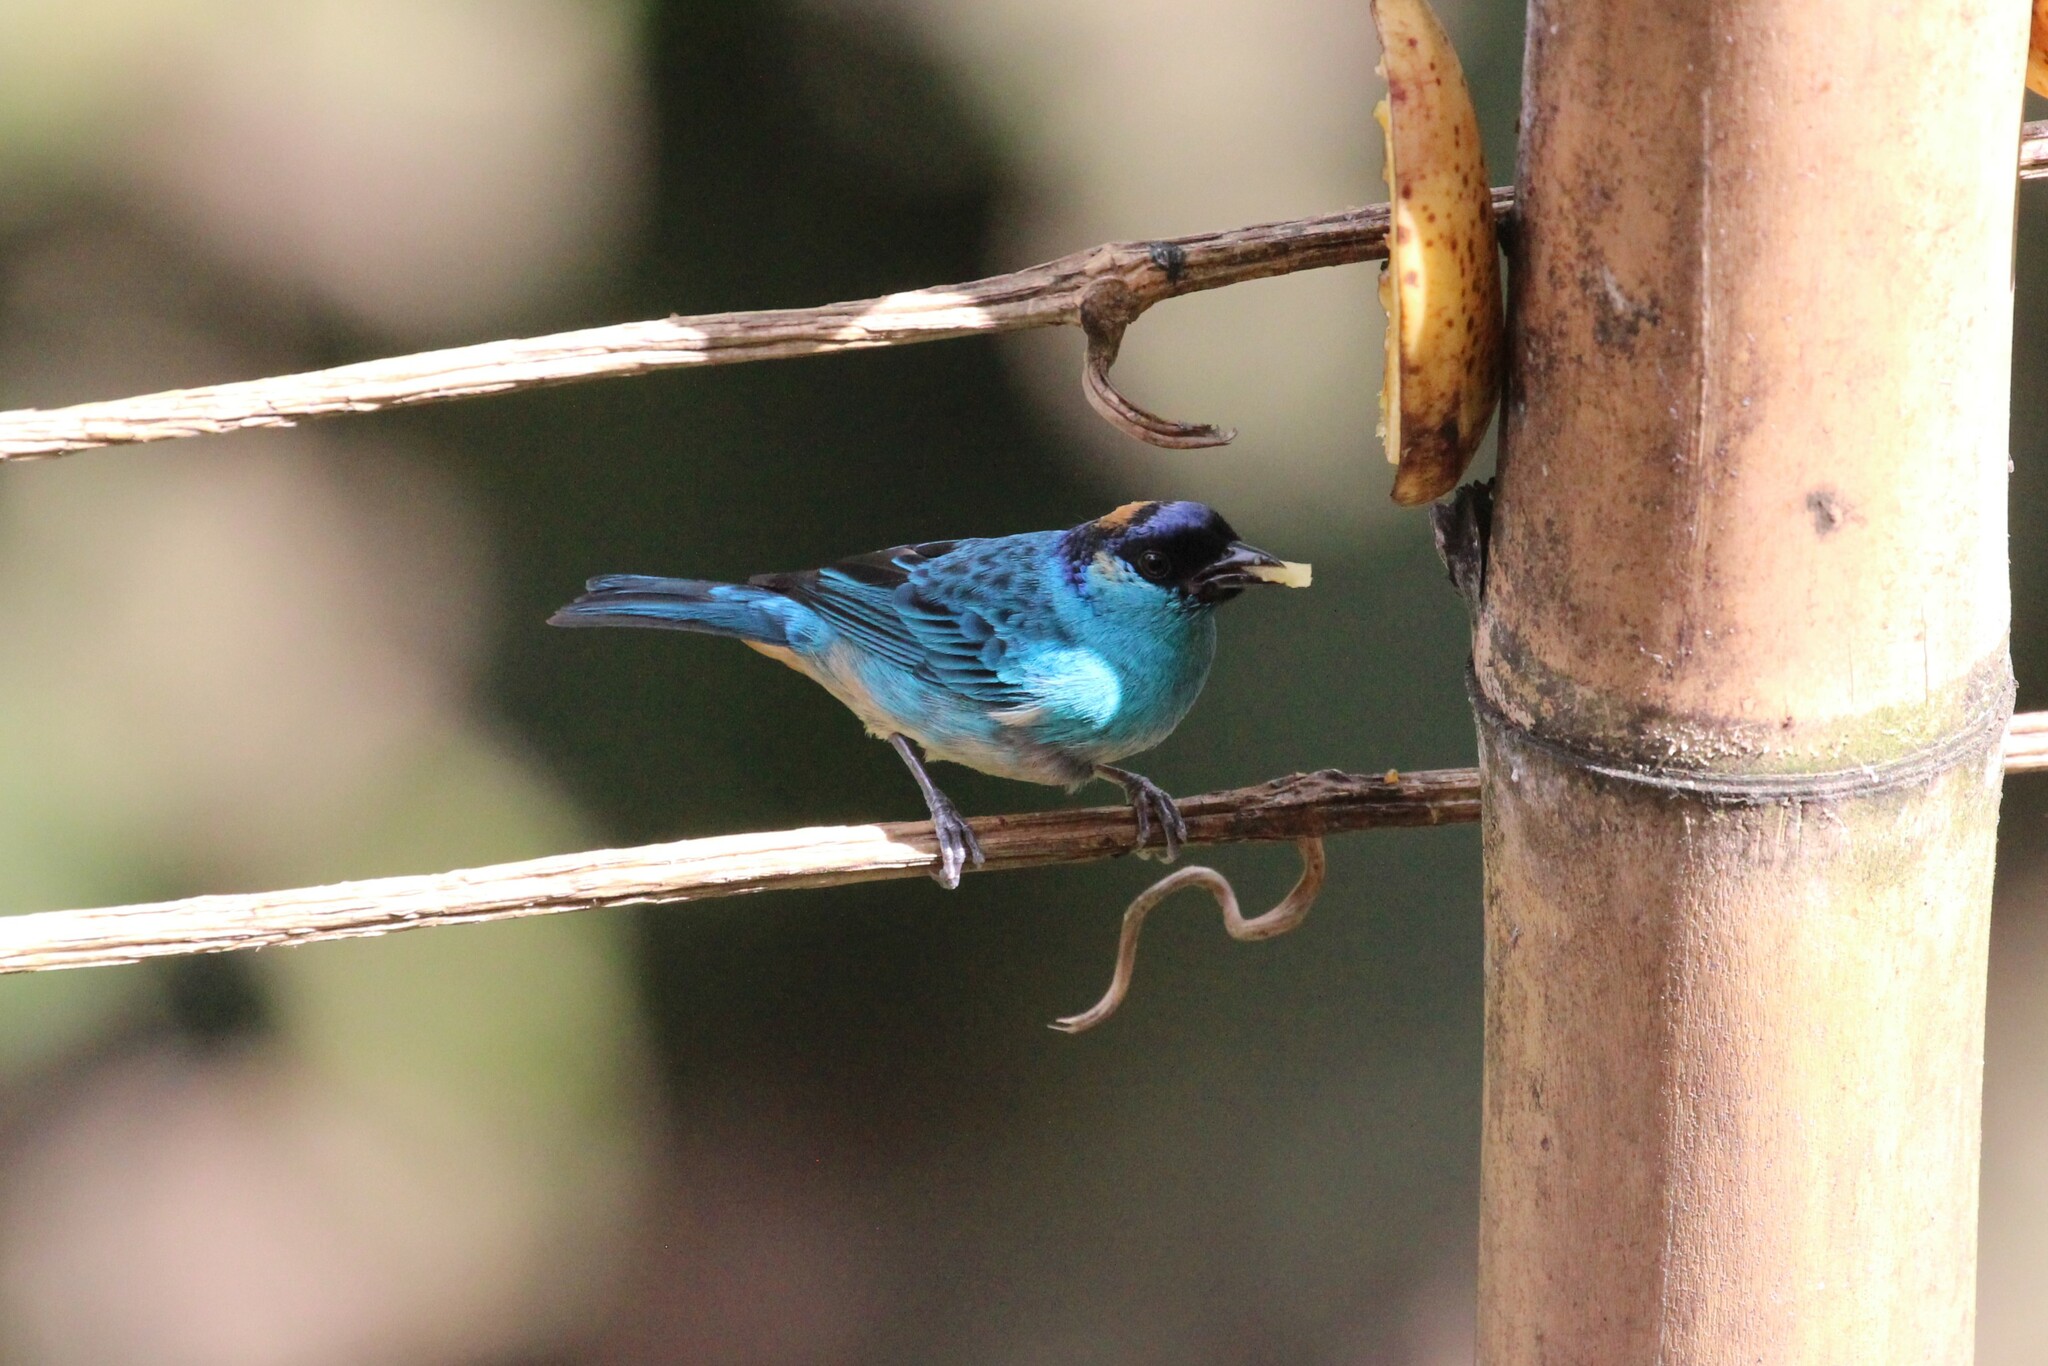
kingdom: Animalia
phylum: Chordata
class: Aves
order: Passeriformes
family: Thraupidae
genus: Chalcothraupis
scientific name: Chalcothraupis ruficervix
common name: Golden-naped tanager
